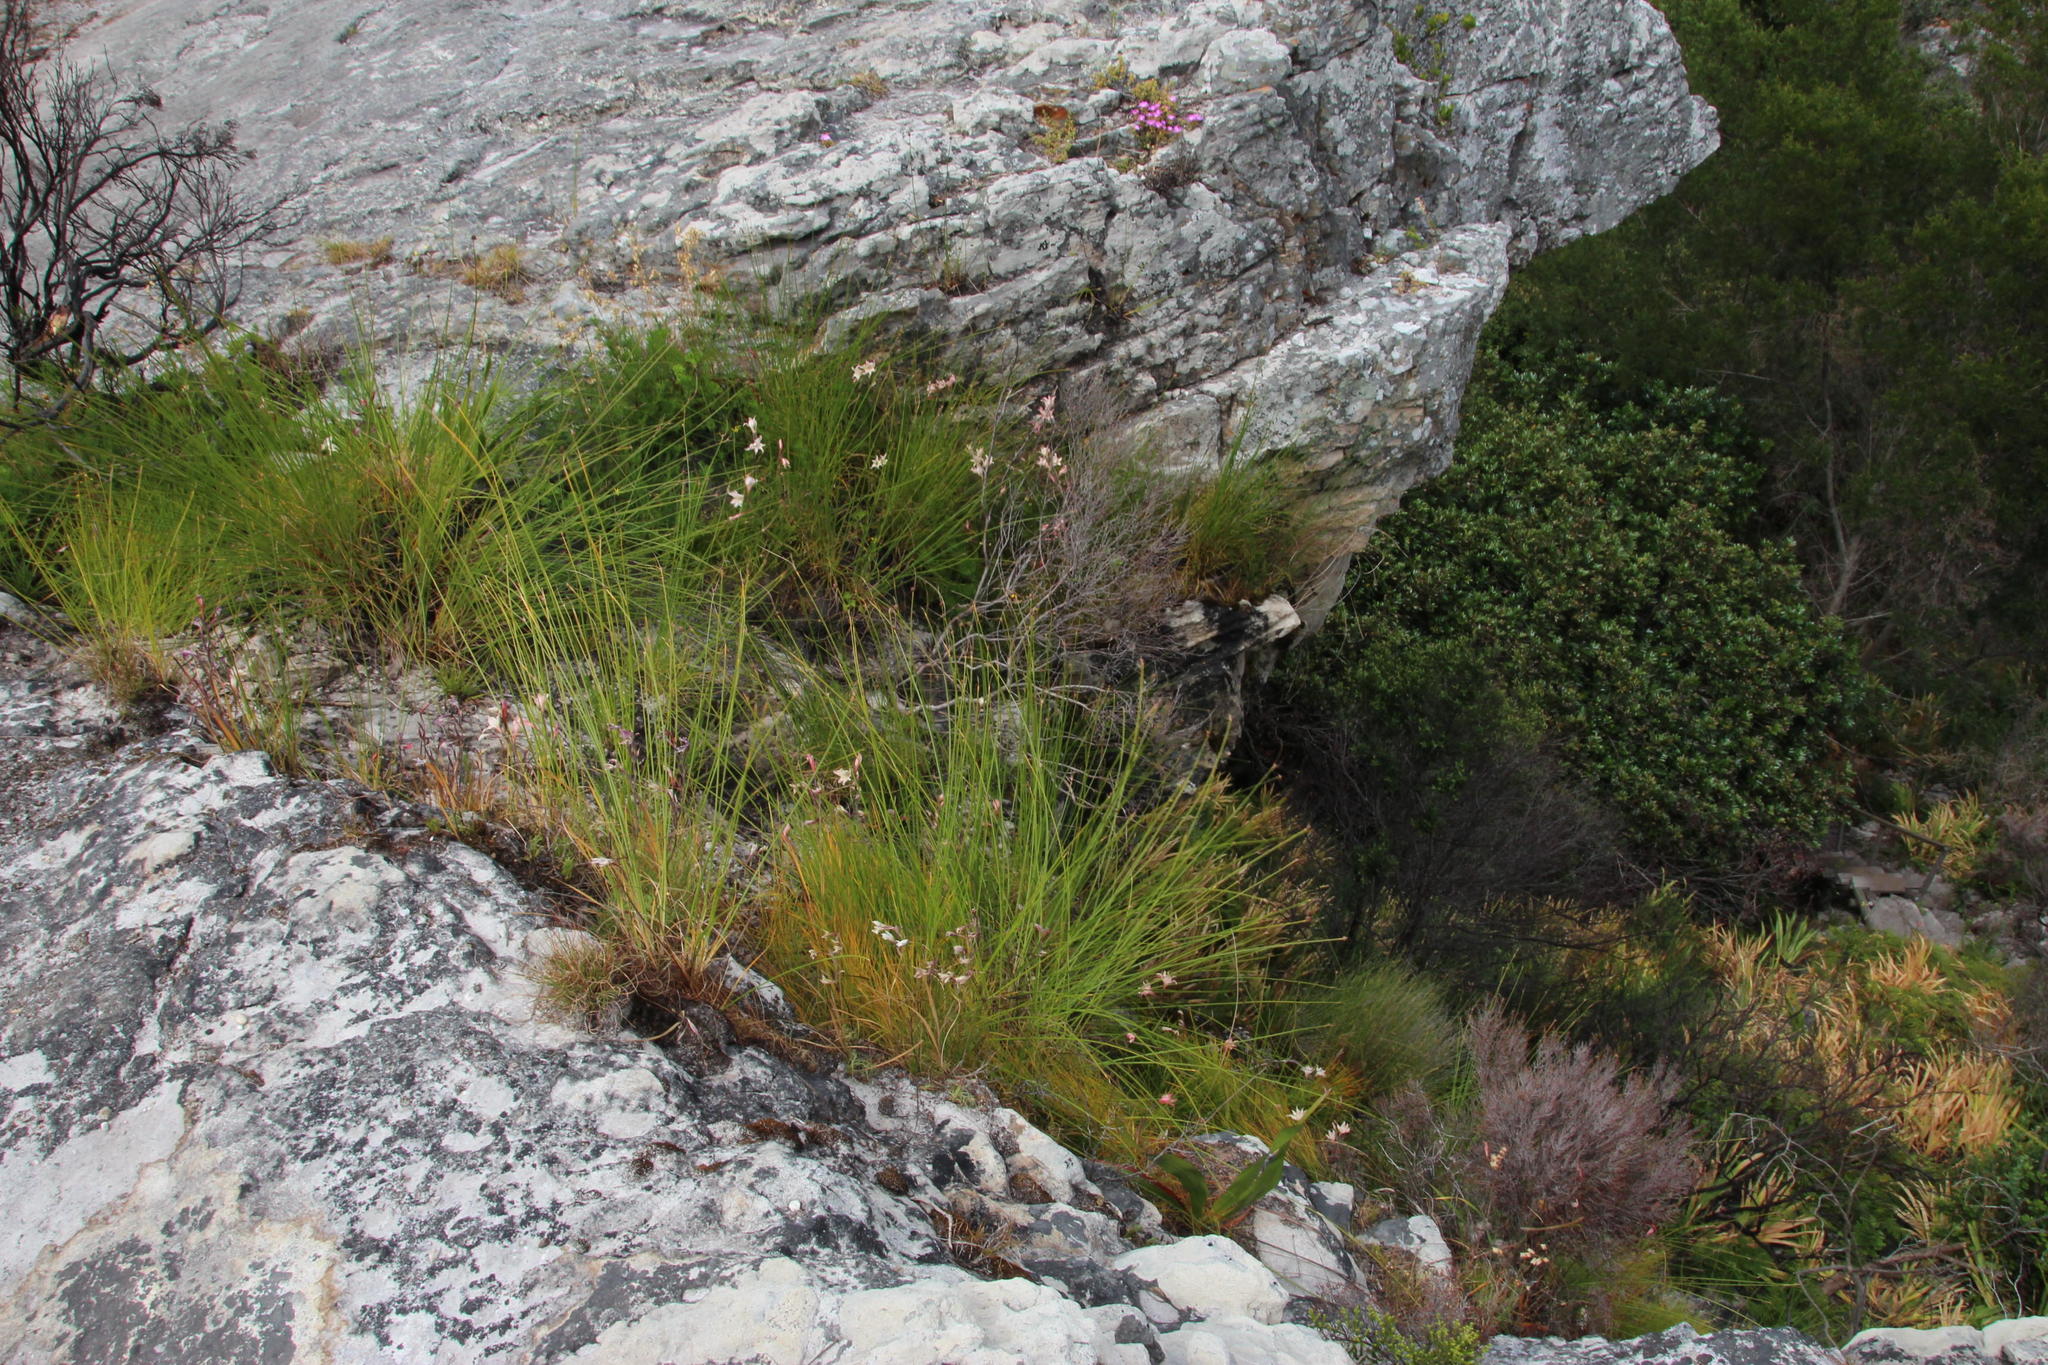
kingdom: Plantae
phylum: Tracheophyta
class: Liliopsida
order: Asparagales
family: Iridaceae
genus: Gladiolus
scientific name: Gladiolus carneus
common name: Painted-lady
